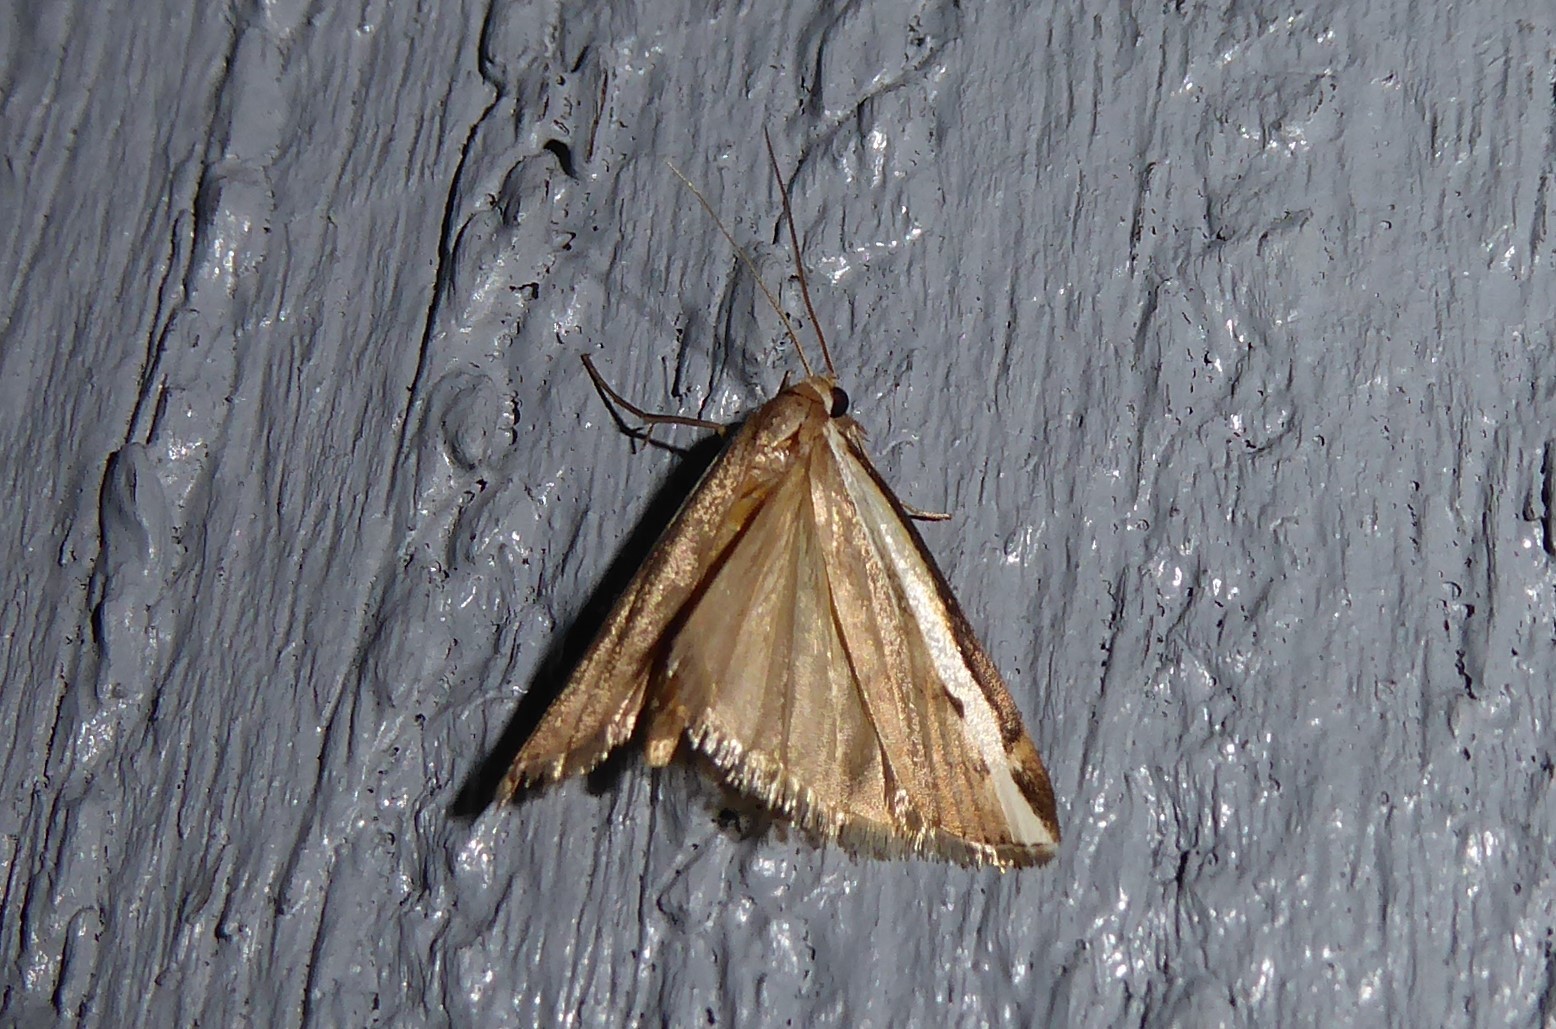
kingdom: Animalia
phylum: Arthropoda
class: Insecta
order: Lepidoptera
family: Crambidae
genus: Orocrambus
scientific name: Orocrambus flexuosellus
